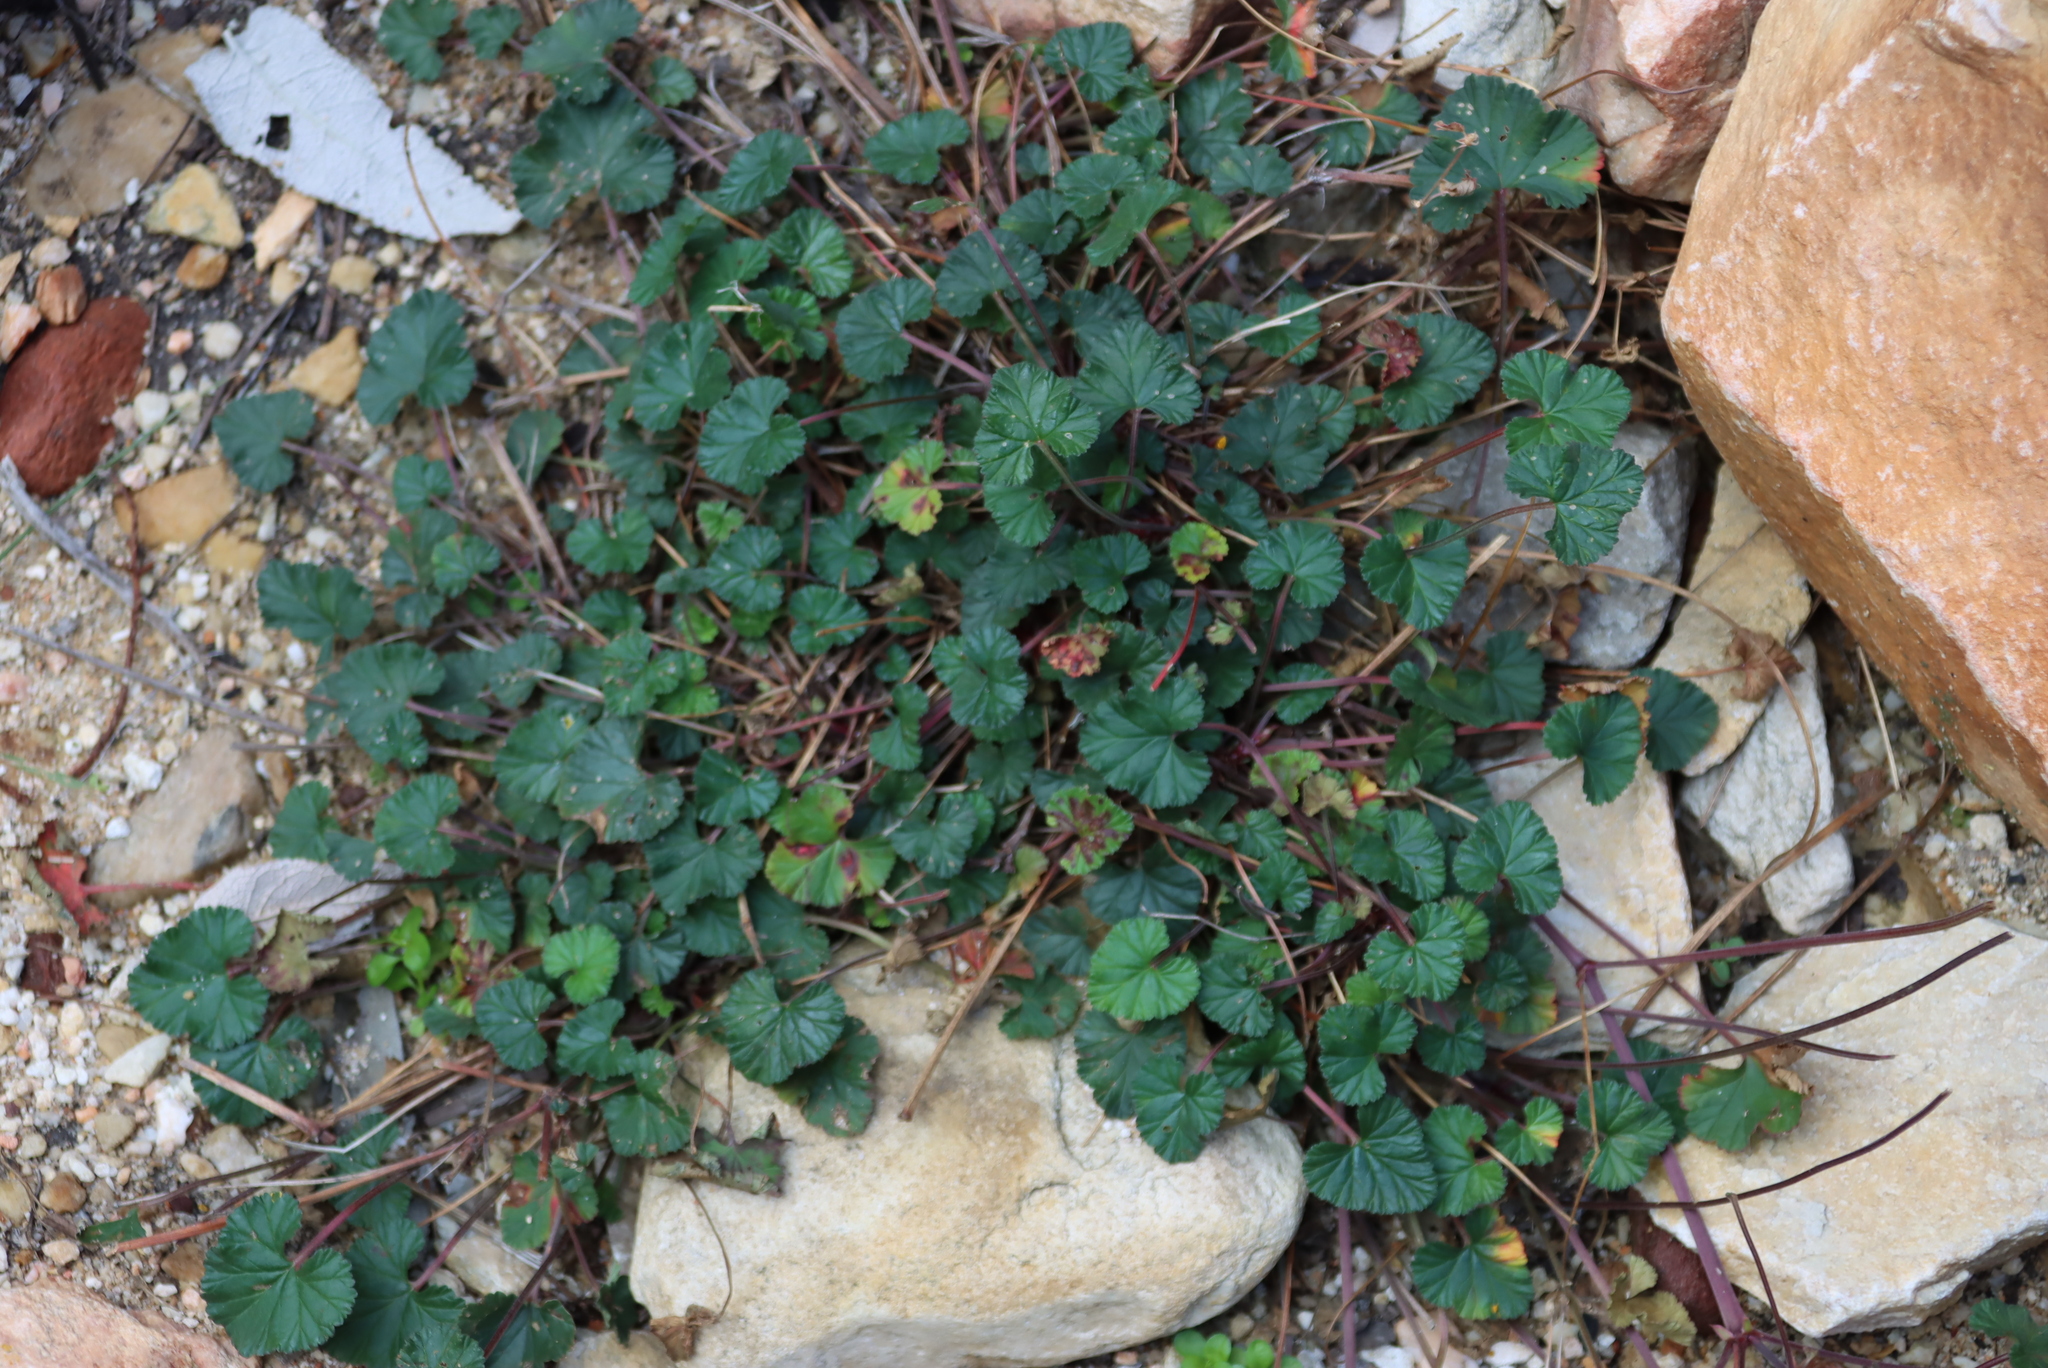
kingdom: Plantae
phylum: Tracheophyta
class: Magnoliopsida
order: Geraniales
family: Geraniaceae
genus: Pelargonium
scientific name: Pelargonium grossularioides
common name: Gooseberry geranium
